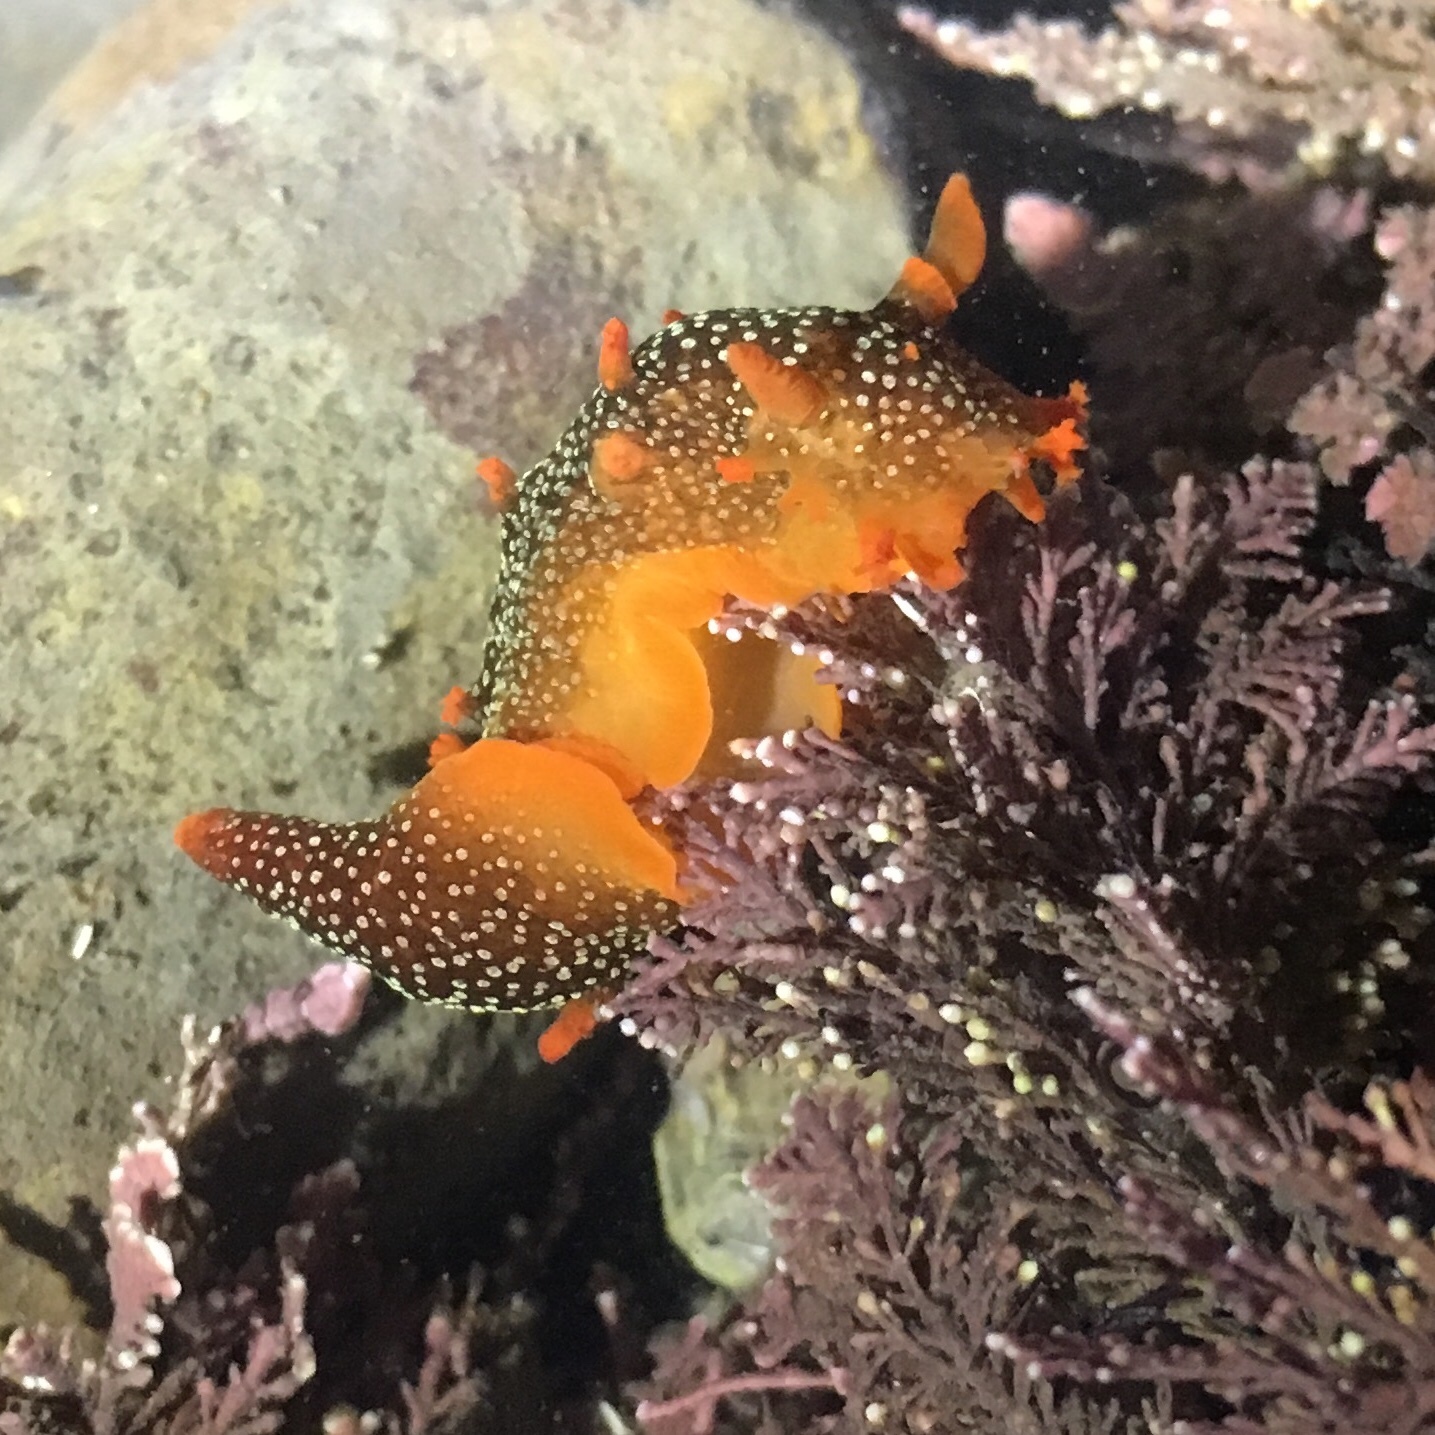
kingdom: Animalia
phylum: Mollusca
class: Gastropoda
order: Nudibranchia
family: Polyceridae
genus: Triopha
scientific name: Triopha maculata
